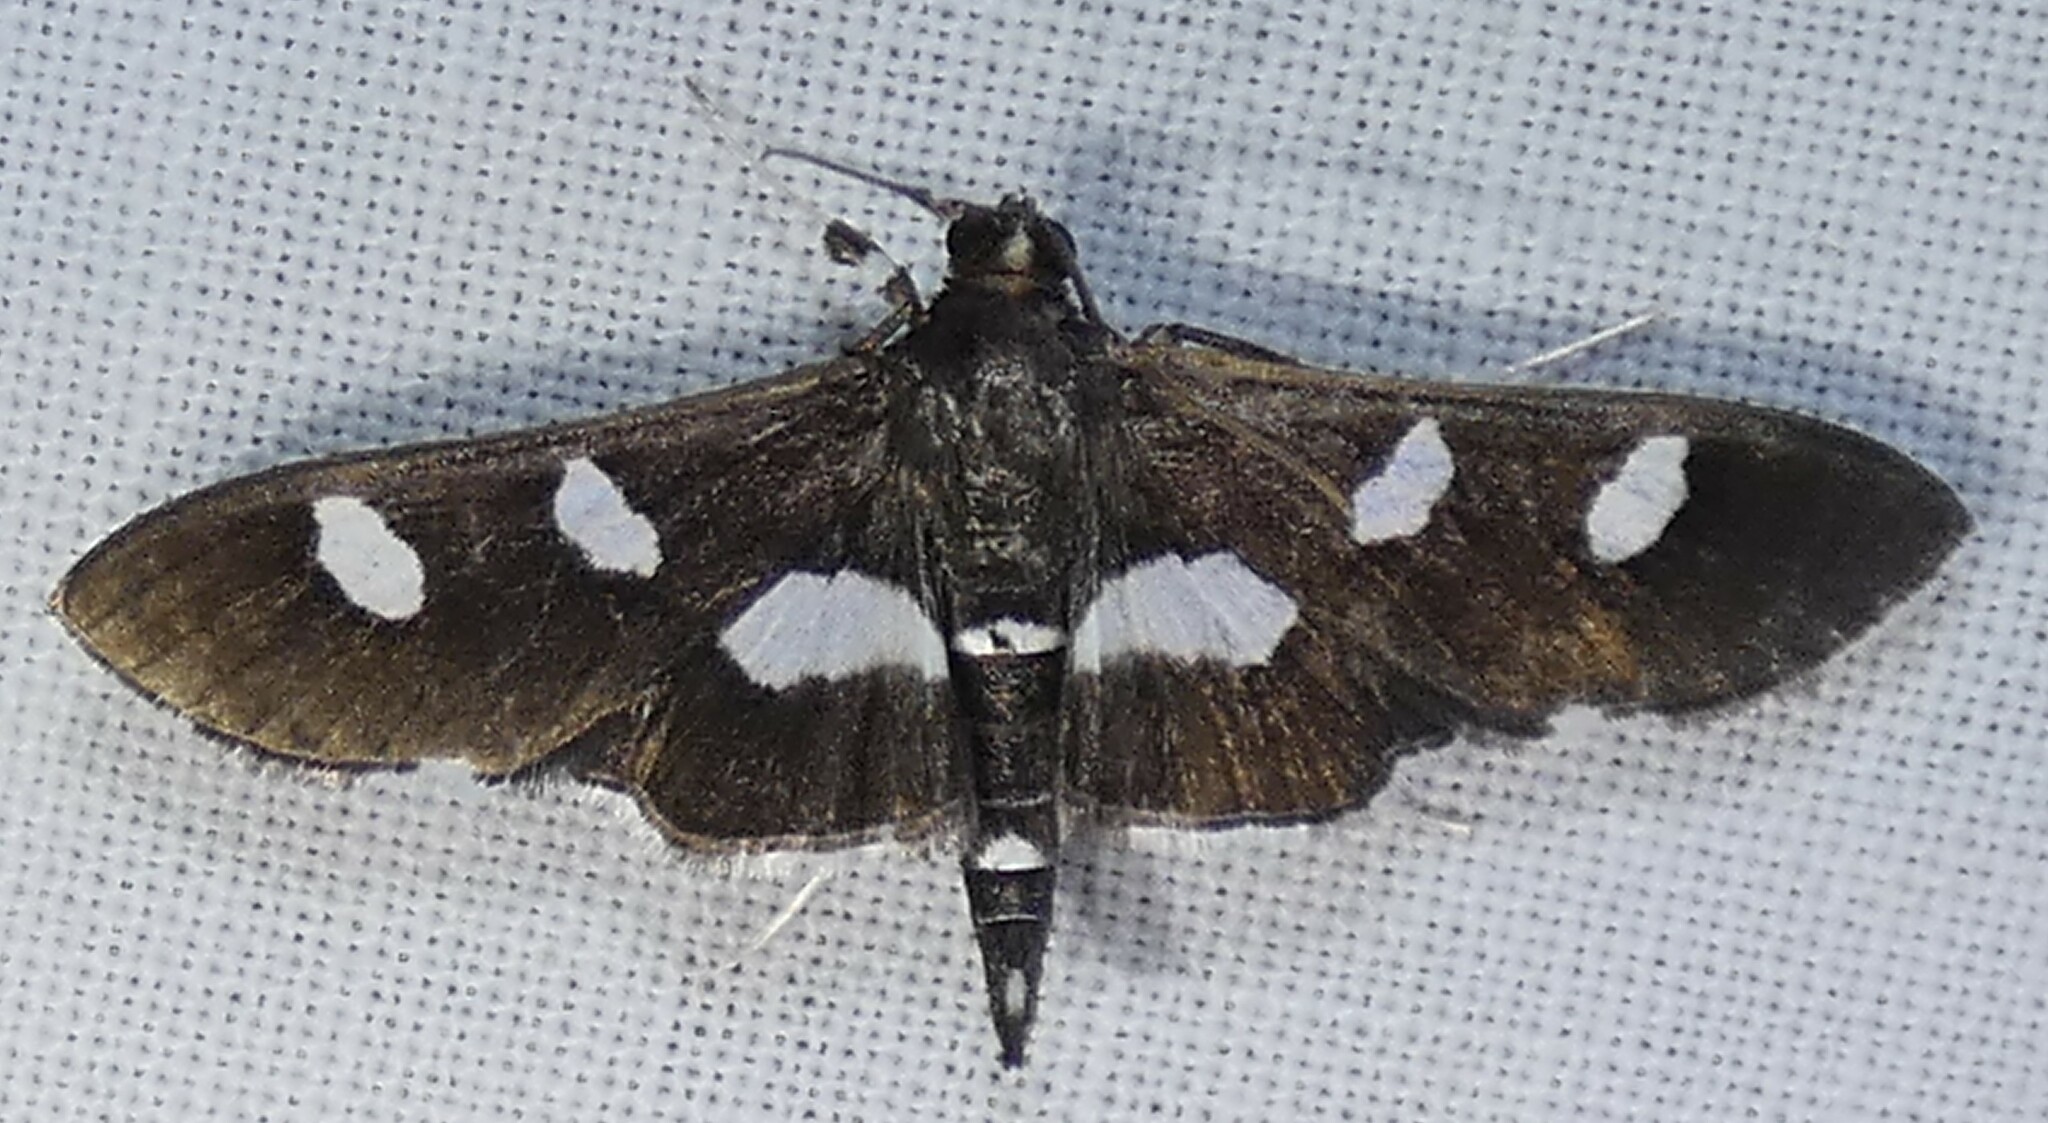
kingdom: Animalia
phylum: Arthropoda
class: Insecta
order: Lepidoptera
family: Crambidae
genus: Desmia
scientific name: Desmia funeralis
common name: Grape leaf folder moth
